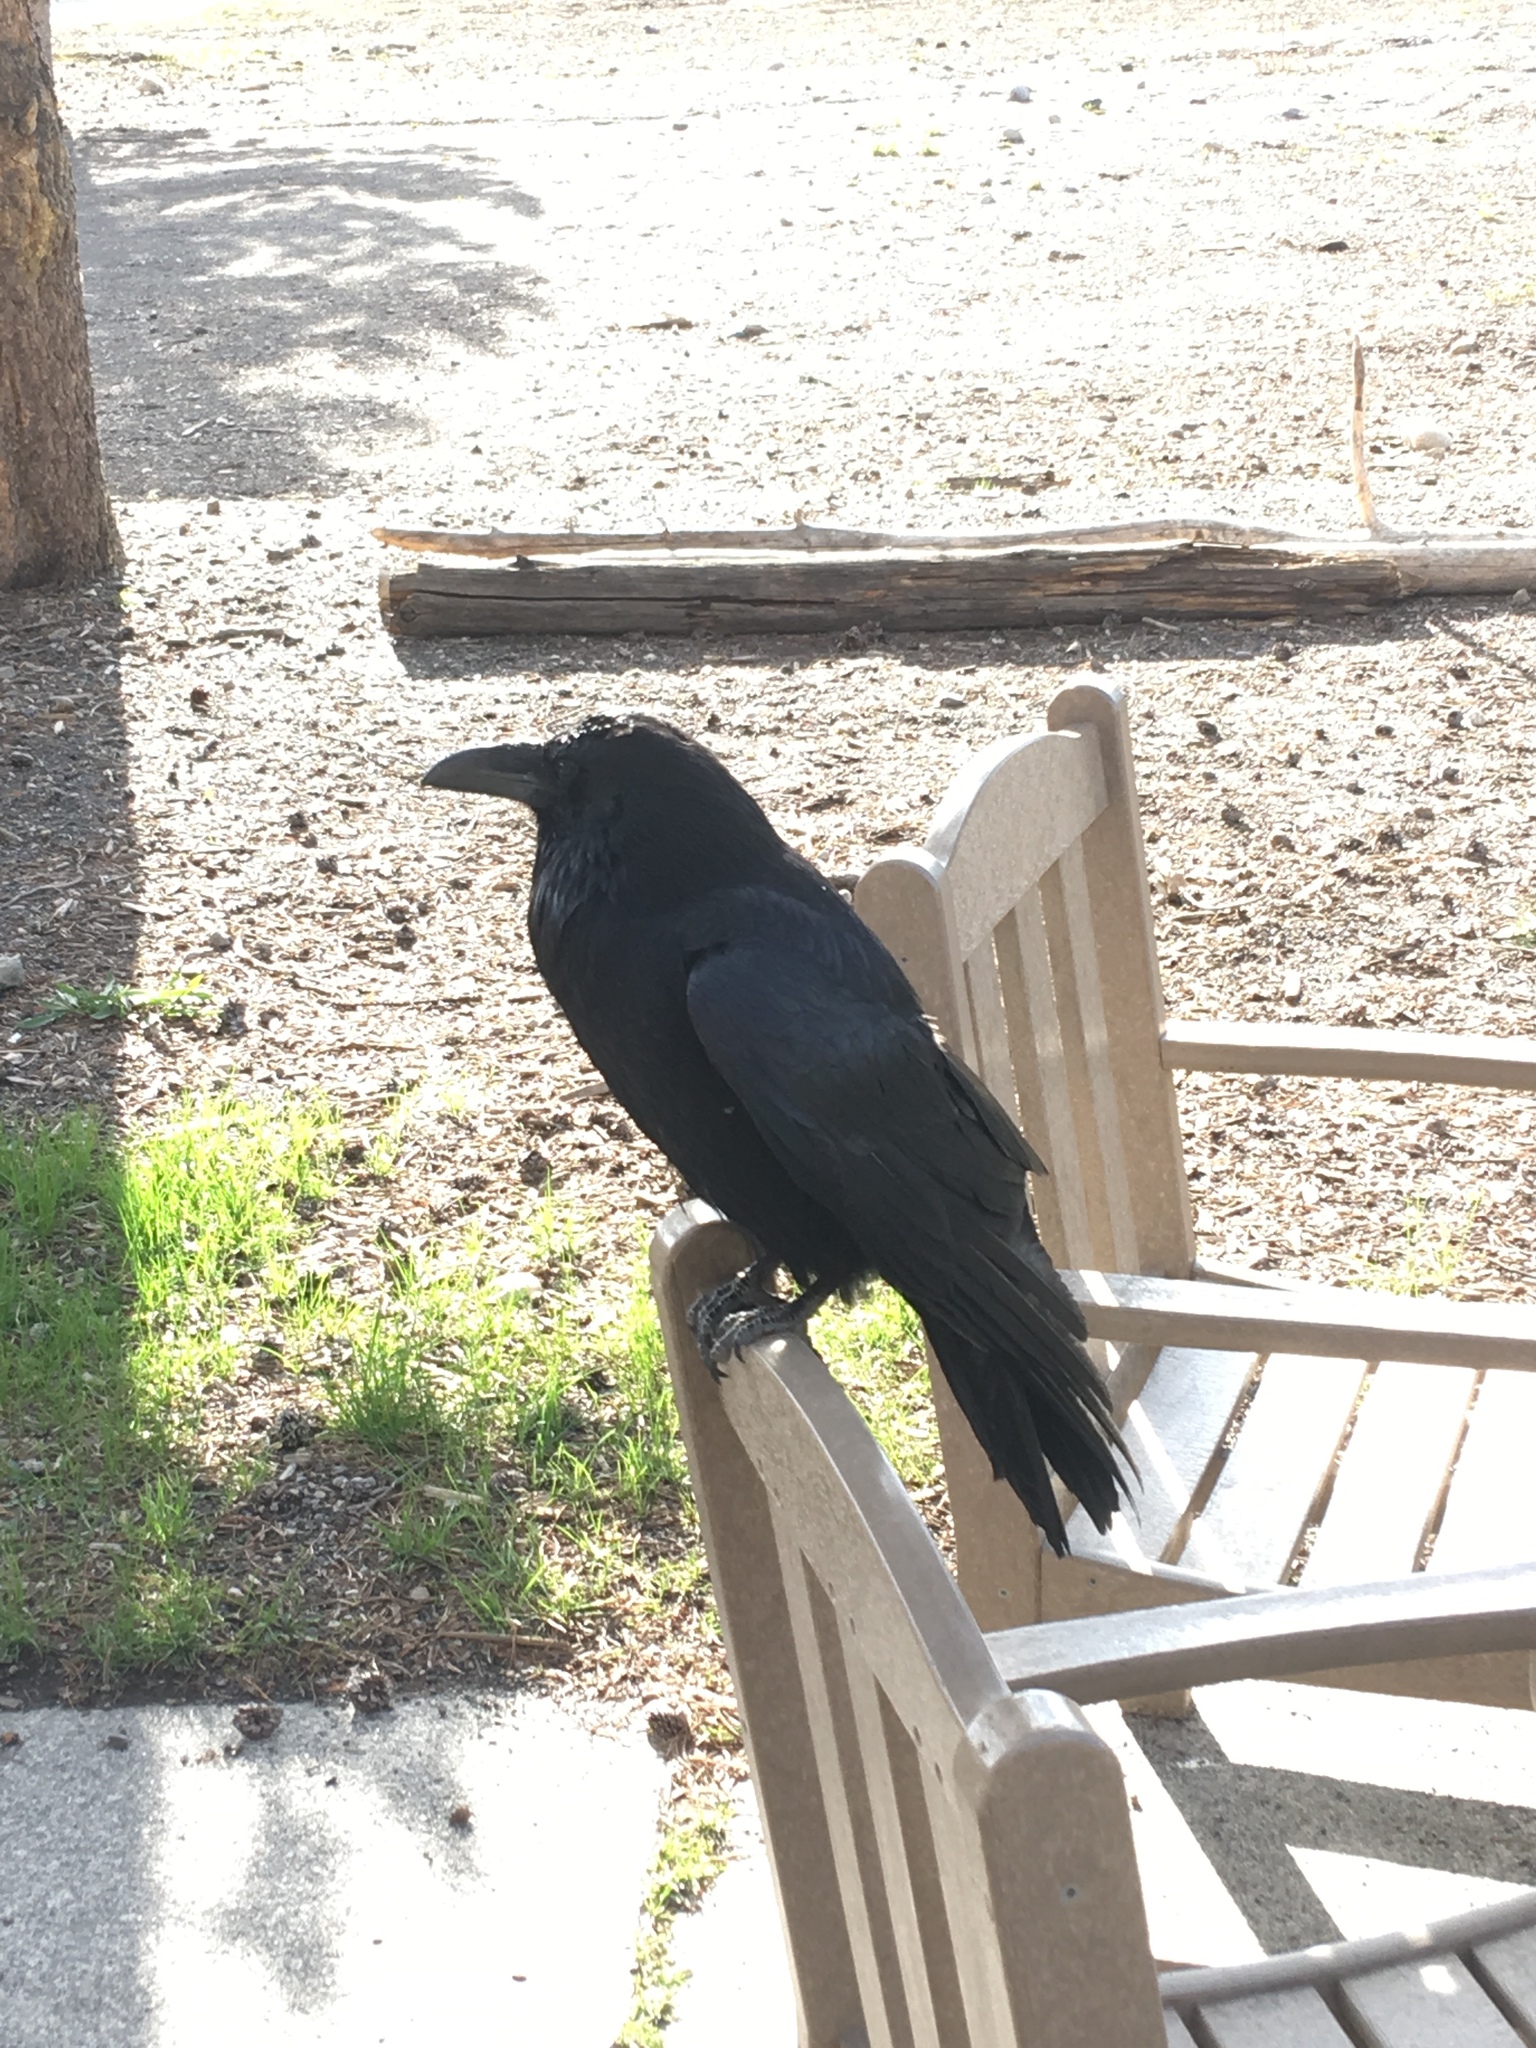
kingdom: Animalia
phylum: Chordata
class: Aves
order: Passeriformes
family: Corvidae
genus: Corvus
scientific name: Corvus corax
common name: Common raven
